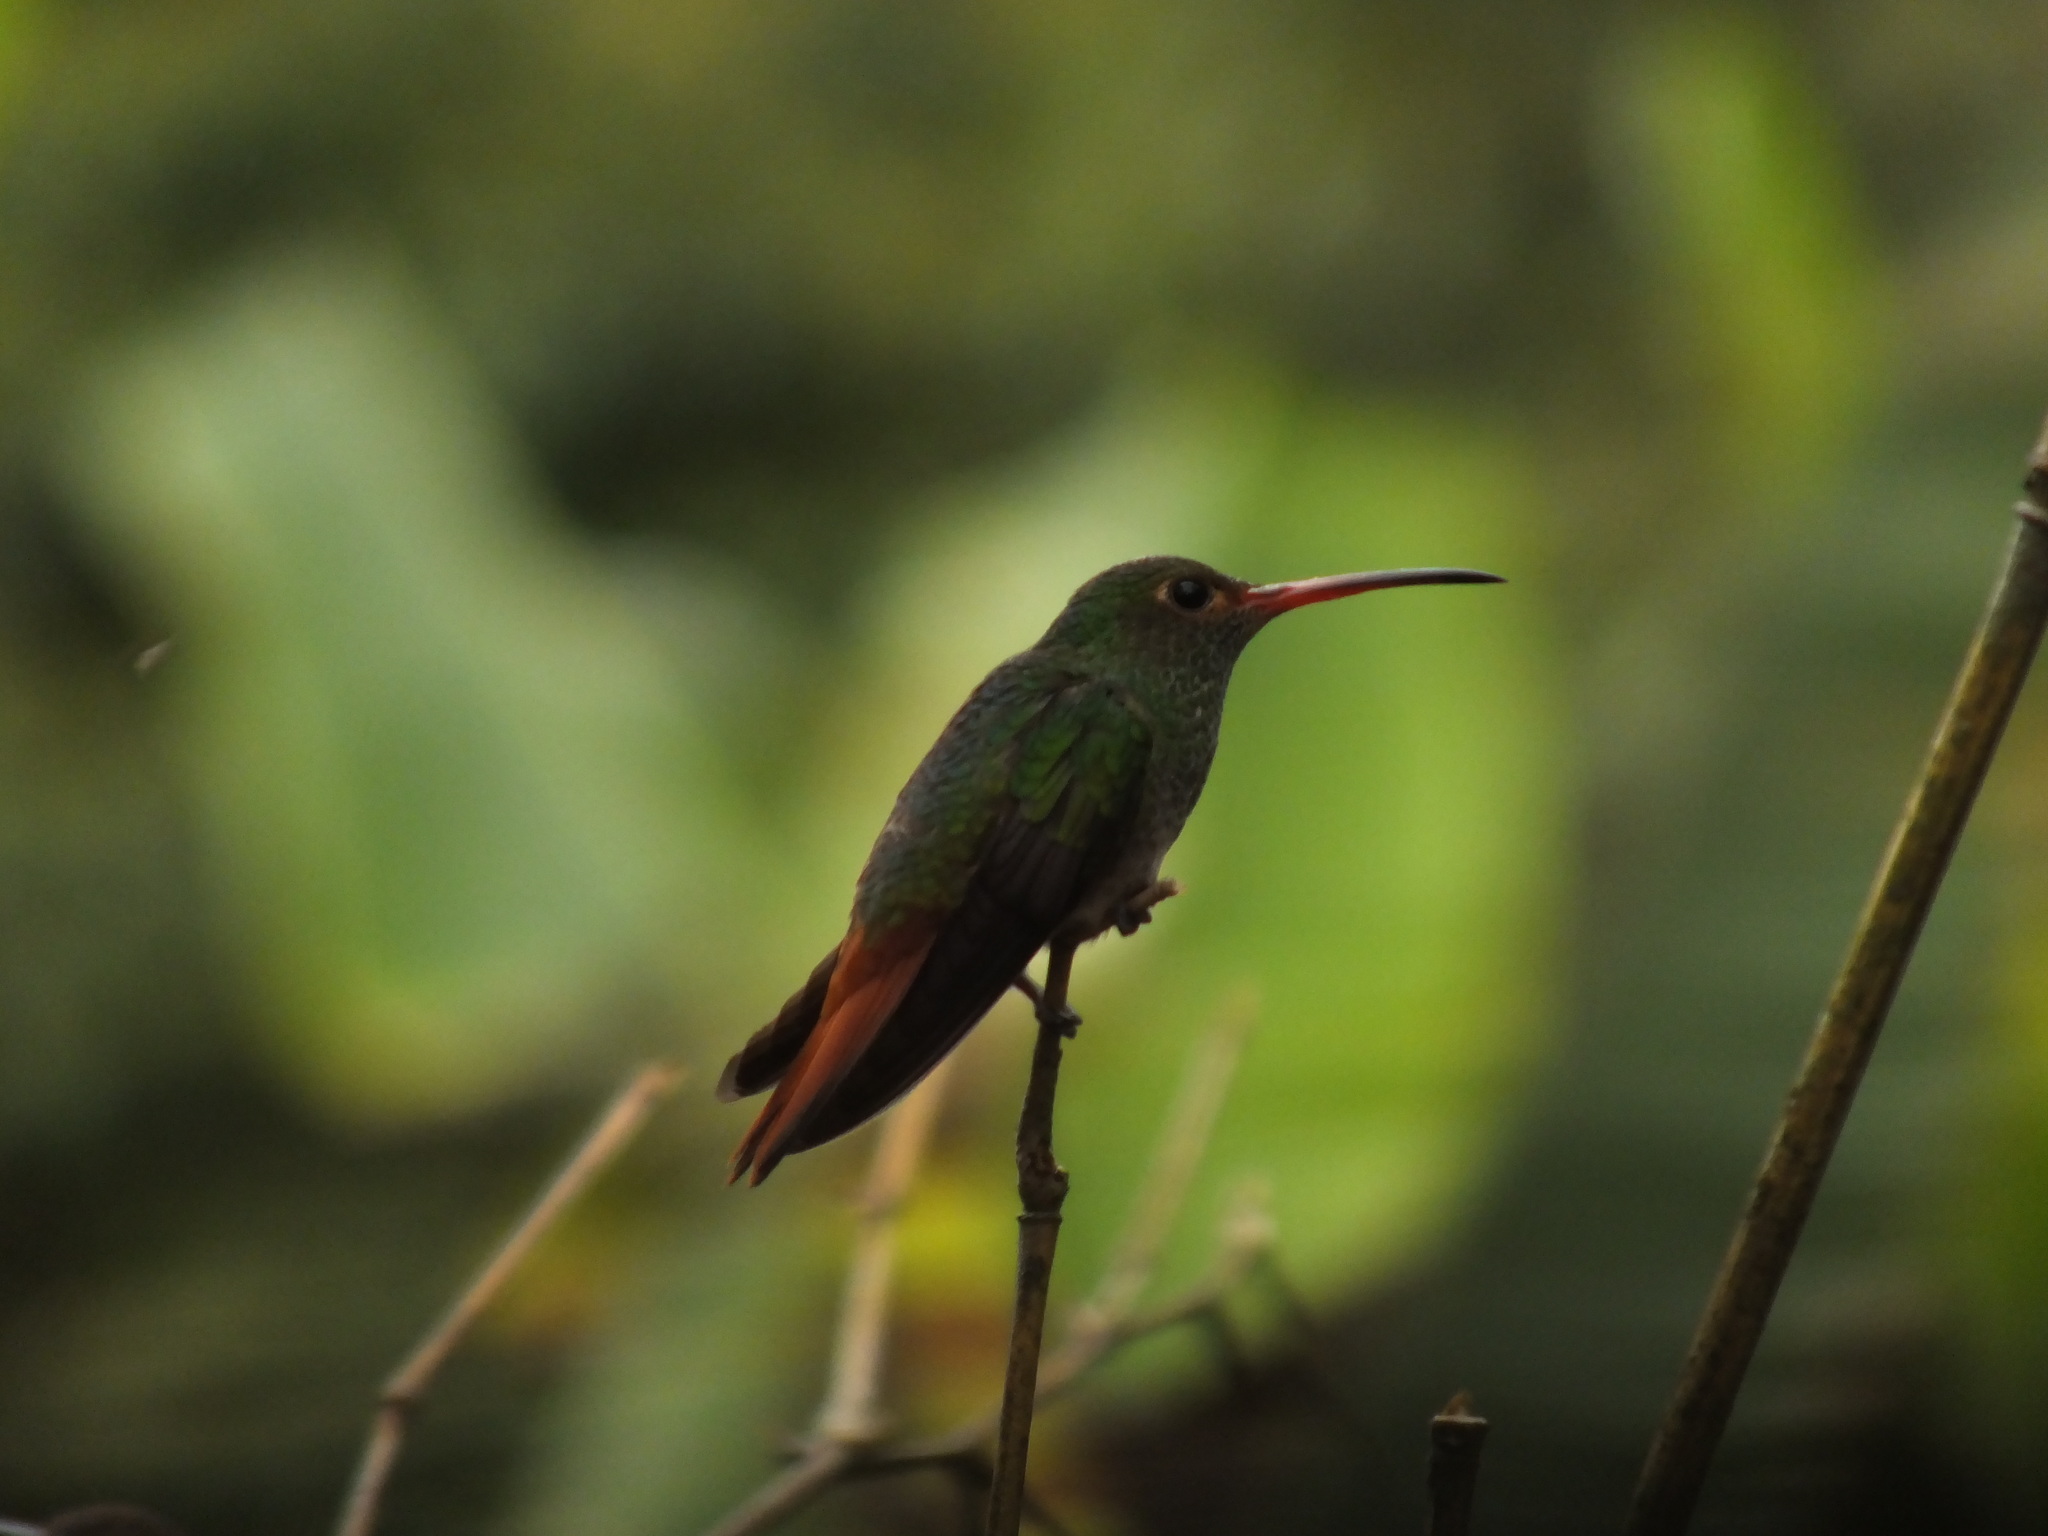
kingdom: Animalia
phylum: Chordata
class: Aves
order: Apodiformes
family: Trochilidae
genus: Amazilia
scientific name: Amazilia tzacatl
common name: Rufous-tailed hummingbird
